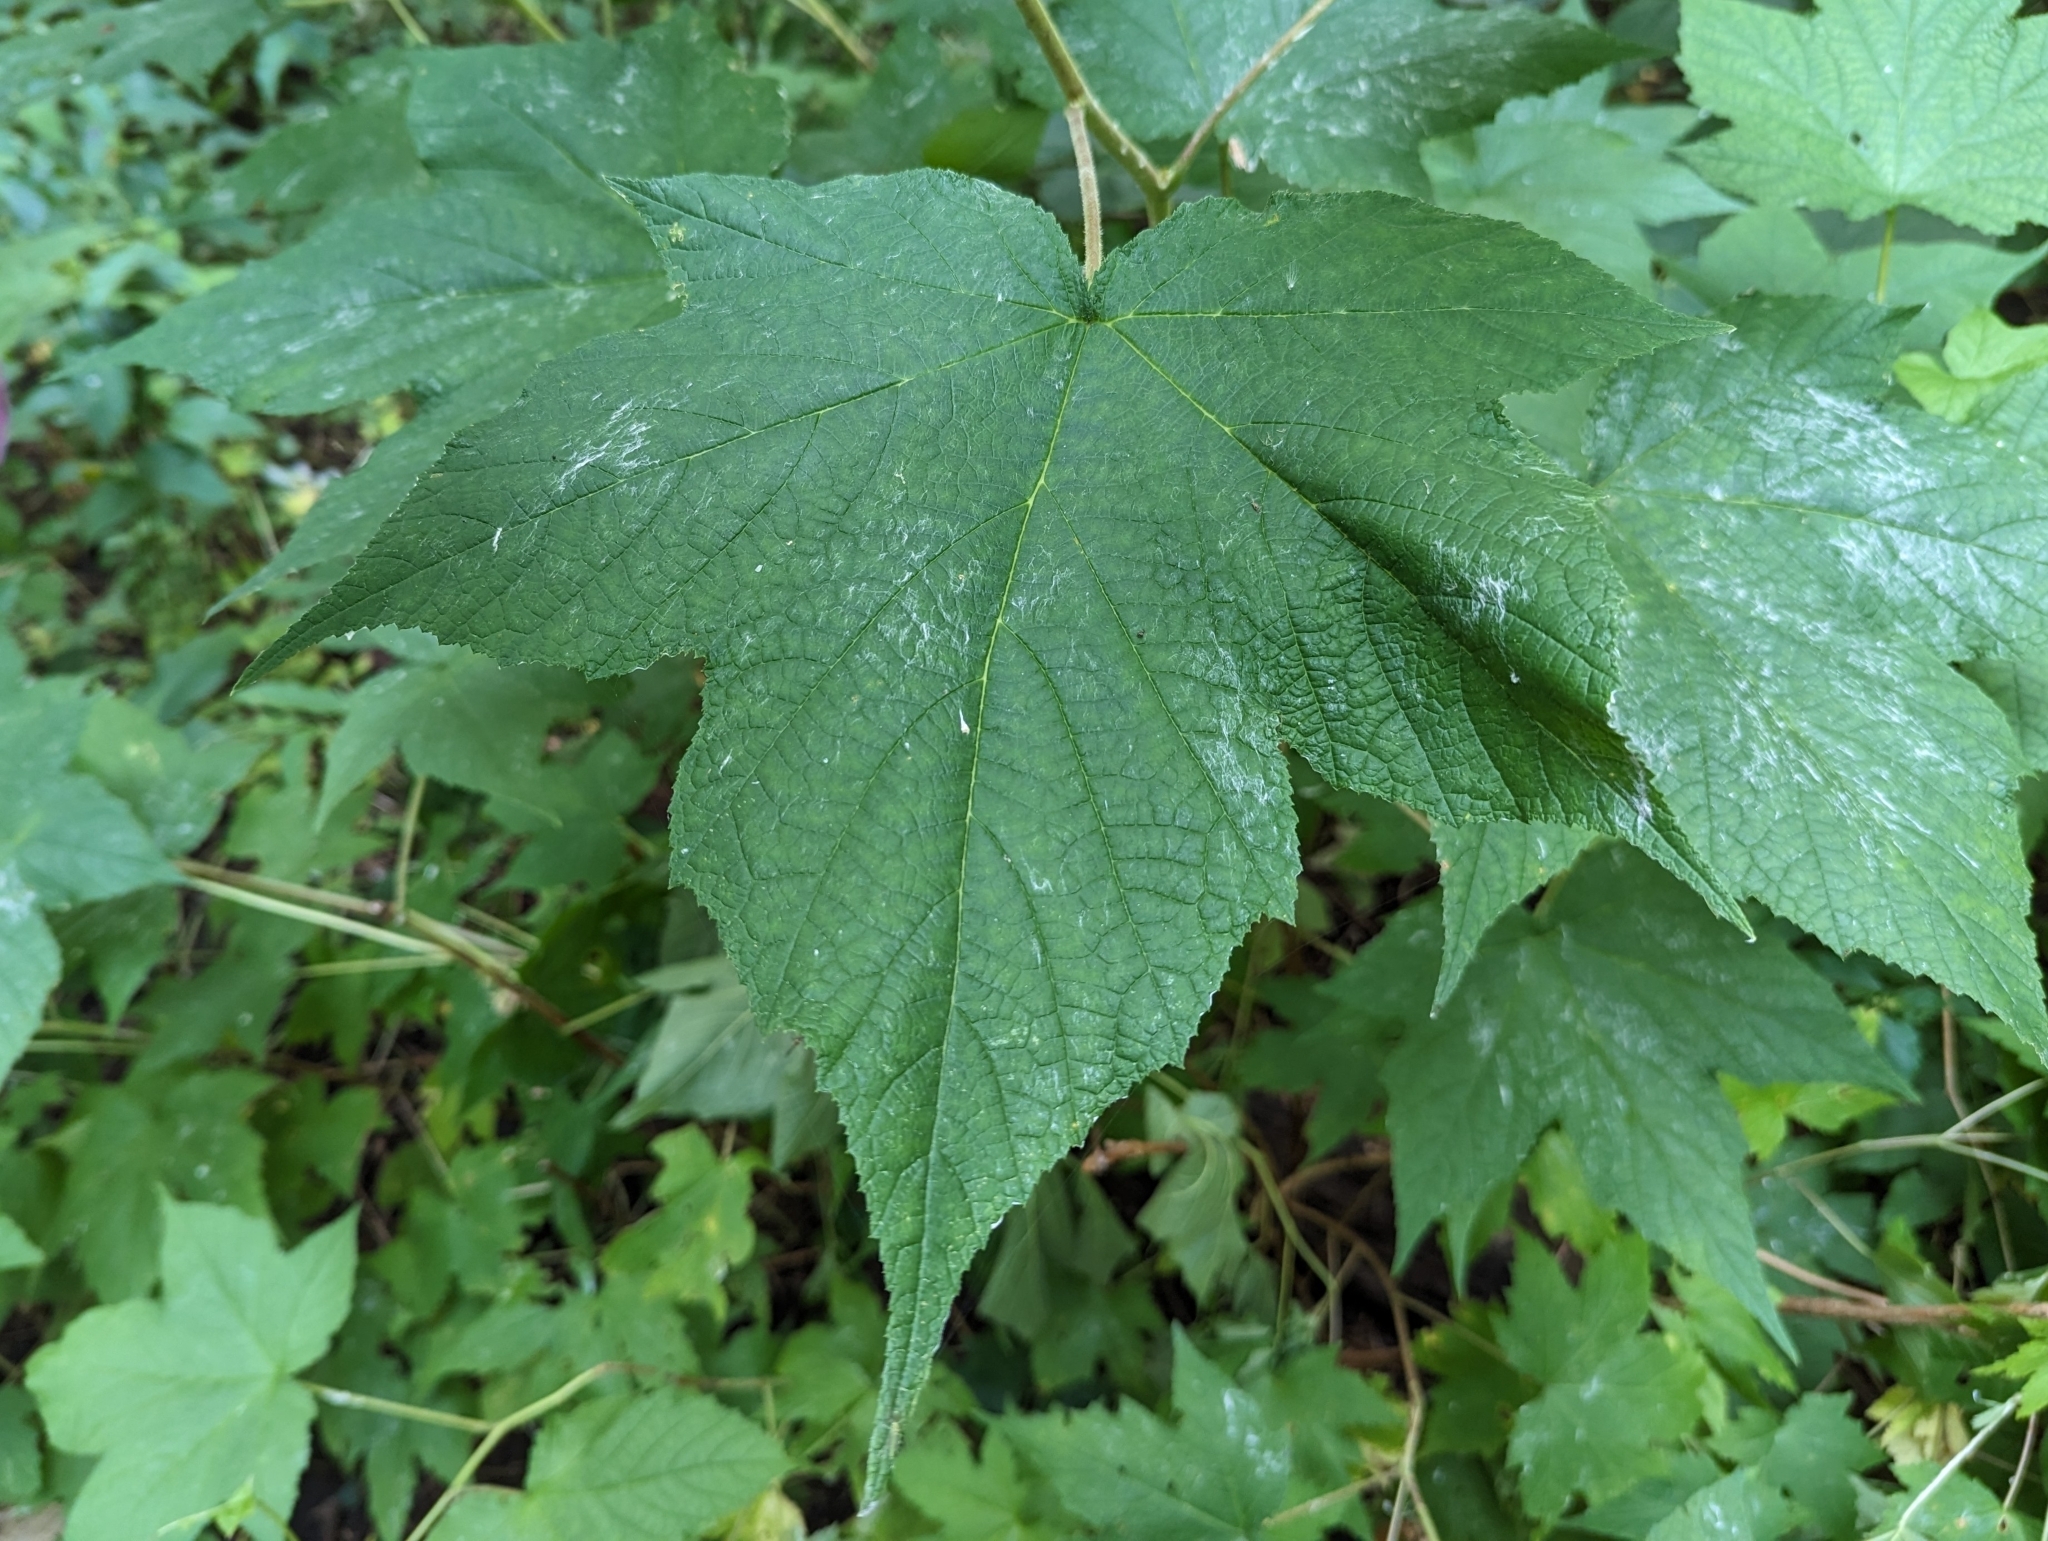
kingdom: Plantae
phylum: Tracheophyta
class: Magnoliopsida
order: Rosales
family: Rosaceae
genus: Rubus
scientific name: Rubus odoratus
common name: Purple-flowered raspberry
